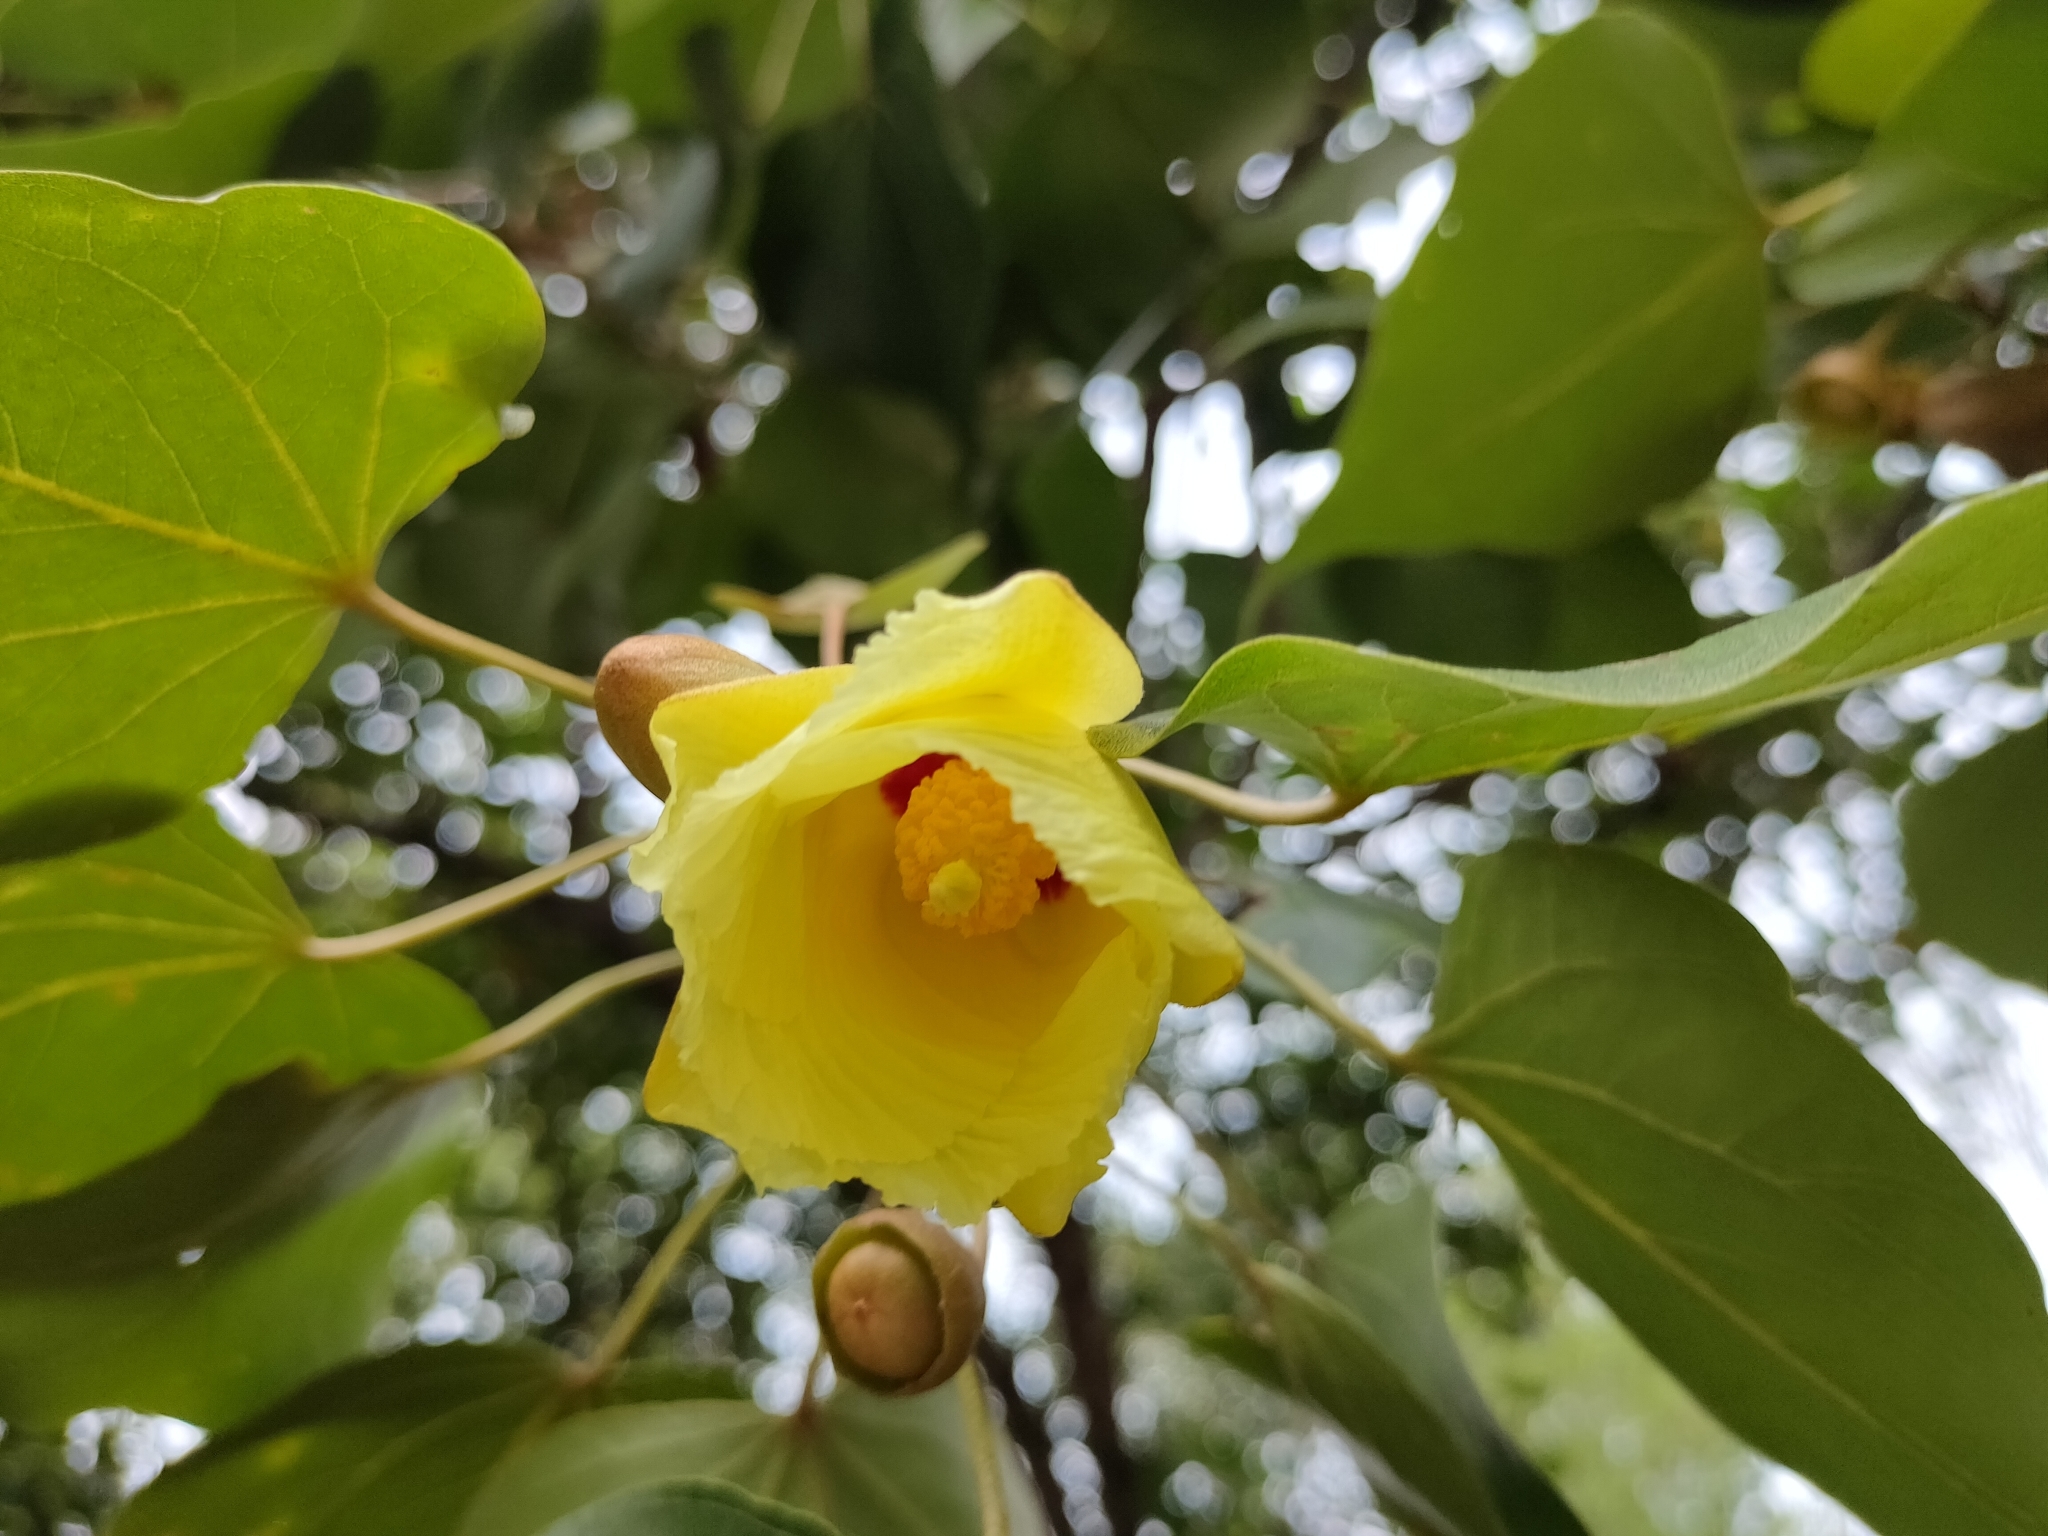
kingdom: Plantae
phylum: Tracheophyta
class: Magnoliopsida
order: Malvales
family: Malvaceae
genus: Thespesia
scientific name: Thespesia populnea
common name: Seaside mahoe
